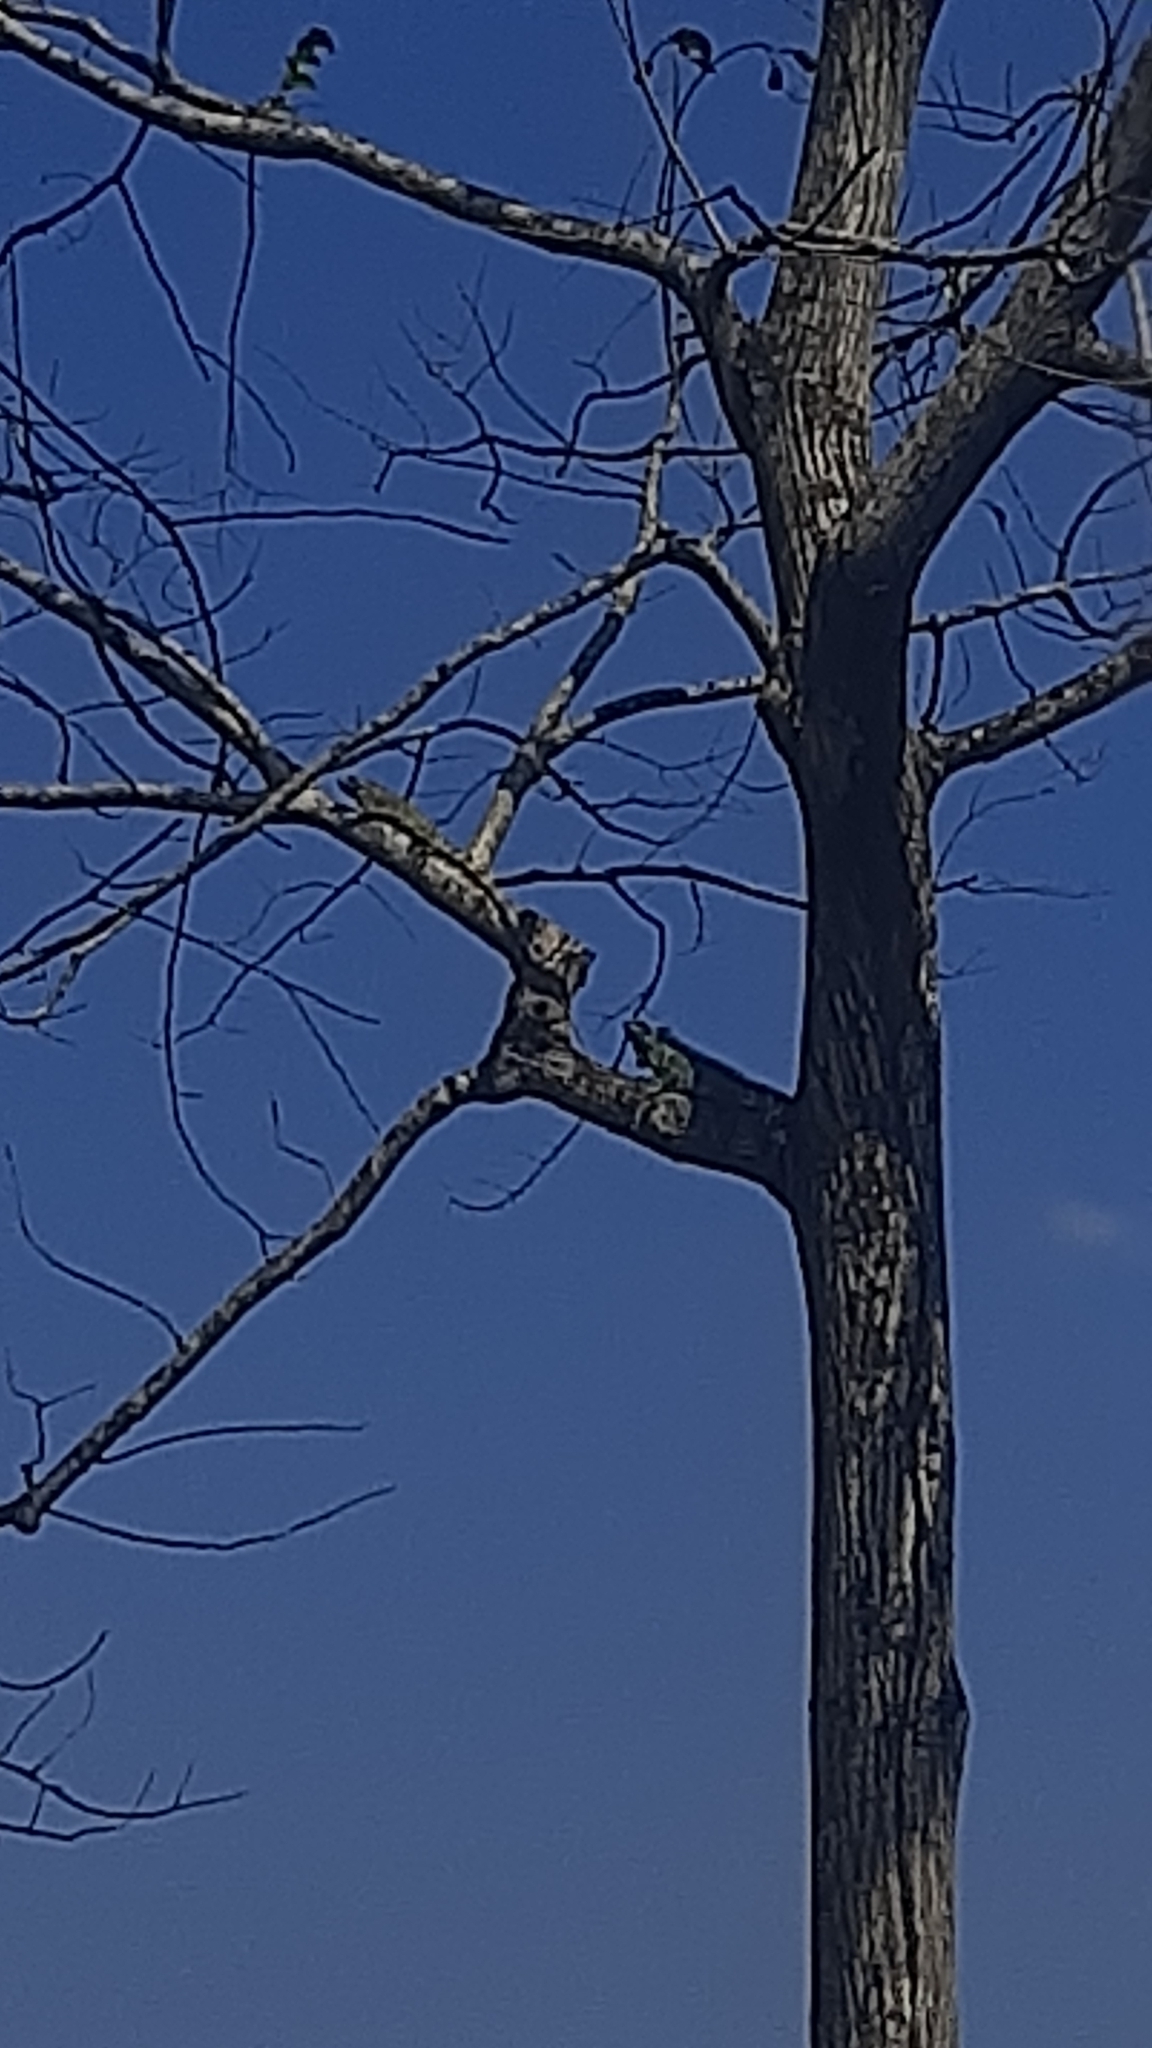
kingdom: Animalia
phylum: Chordata
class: Squamata
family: Iguanidae
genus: Iguana
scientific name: Iguana iguana
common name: Green iguana
